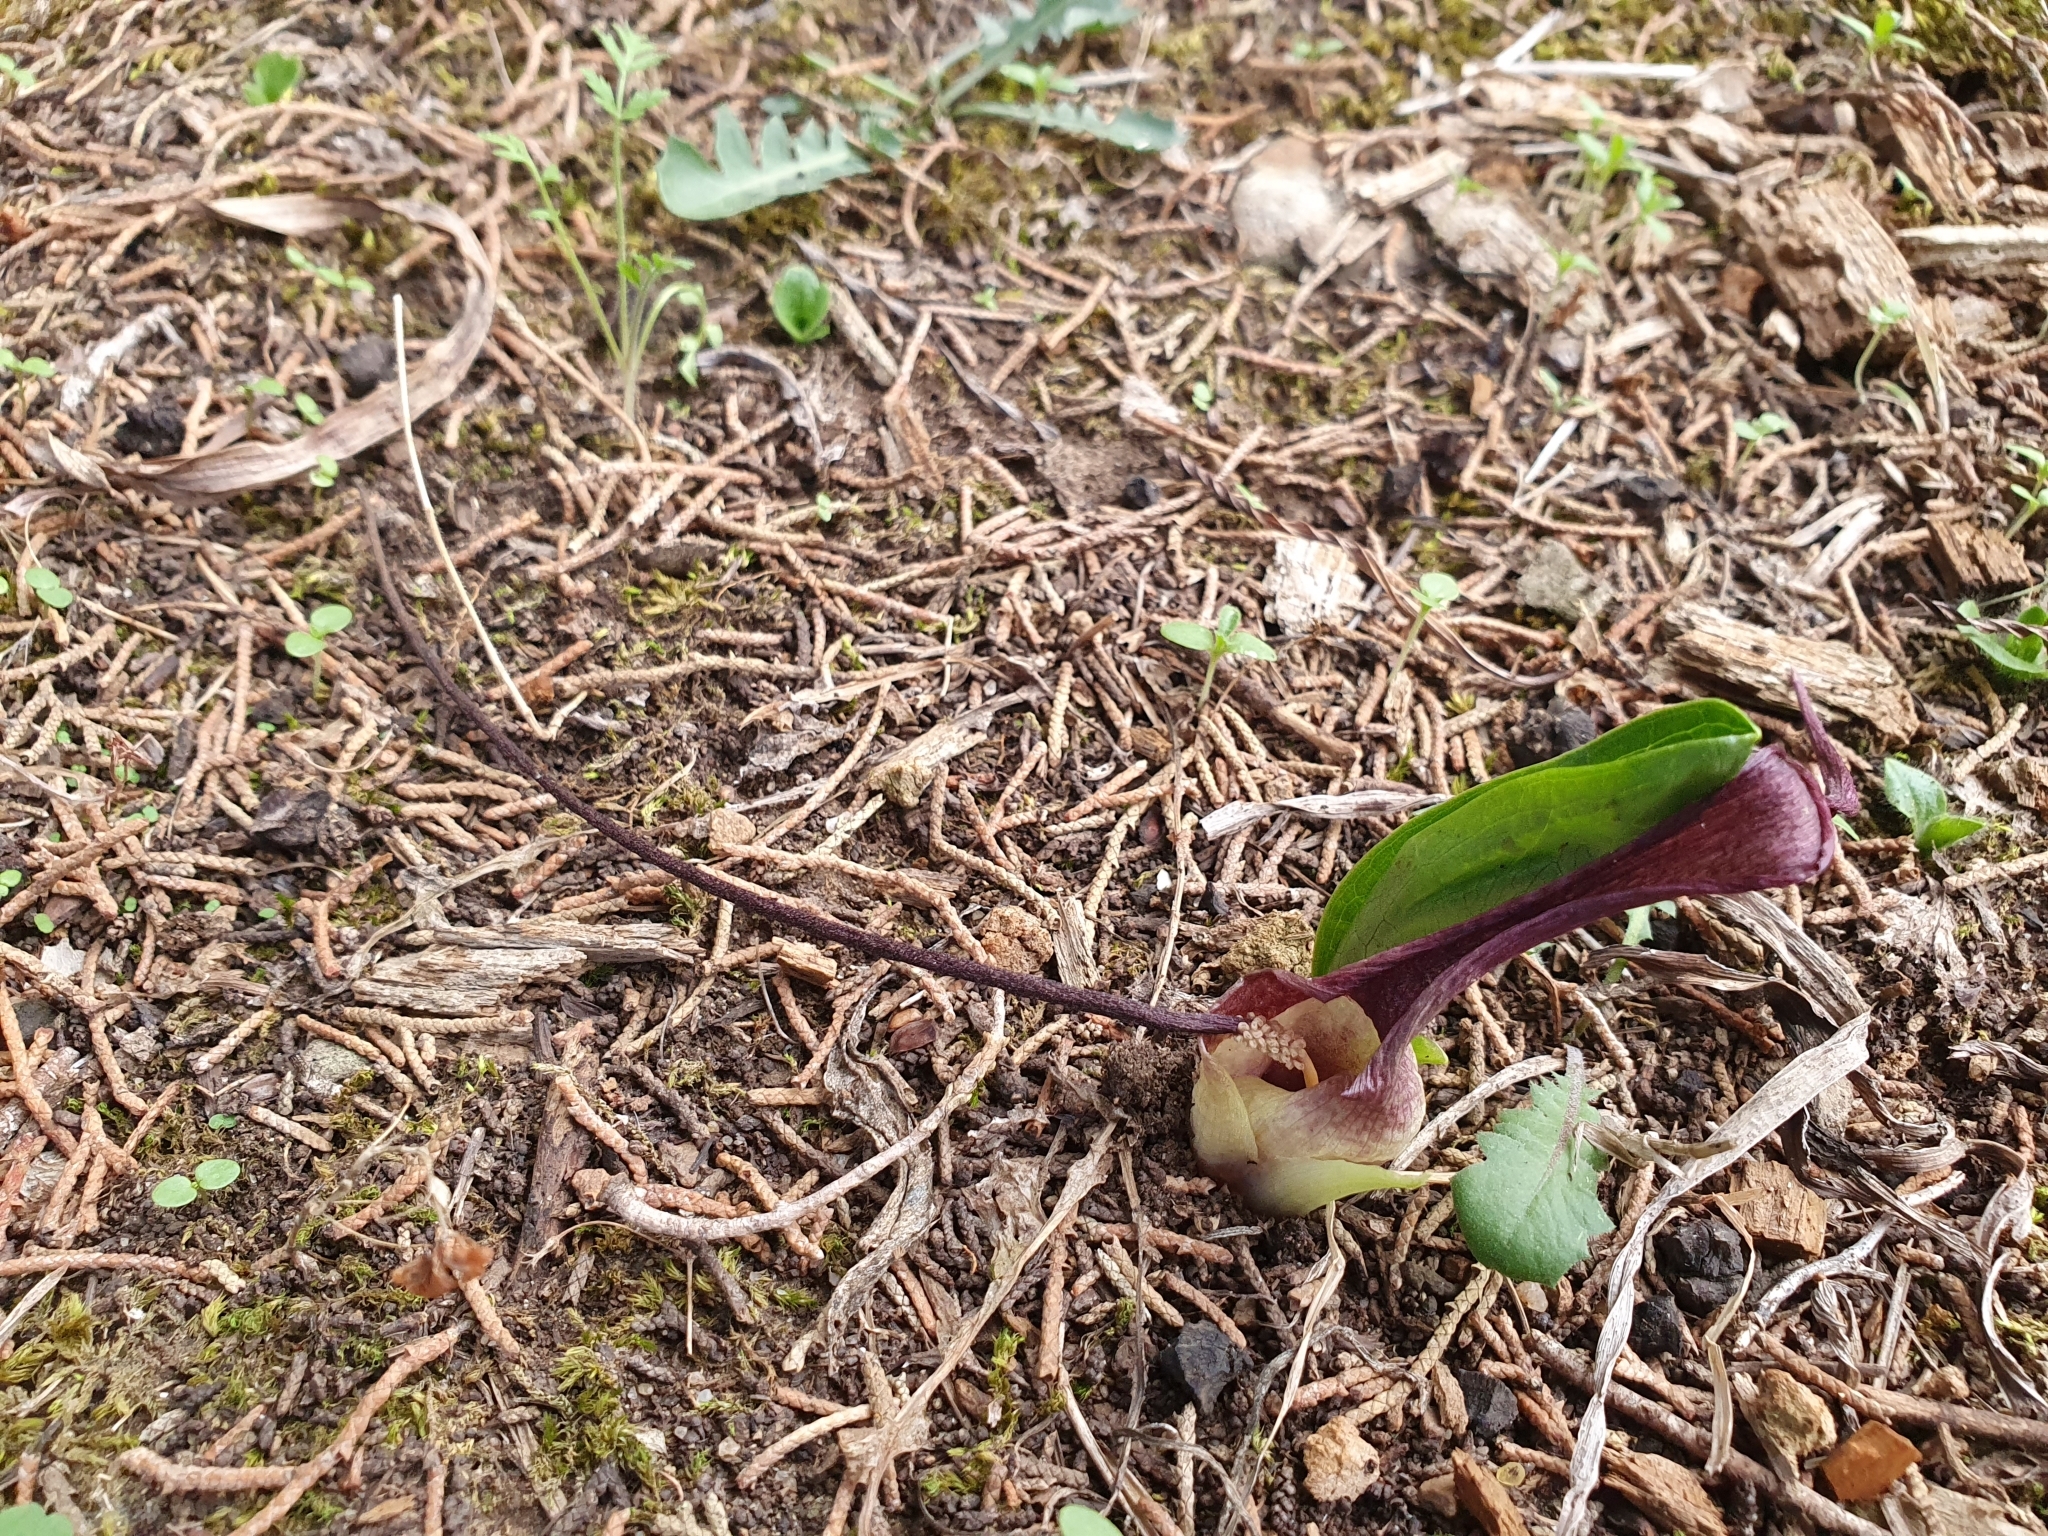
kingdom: Plantae
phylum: Tracheophyta
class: Liliopsida
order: Alismatales
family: Araceae
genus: Biarum
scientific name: Biarum dispar
